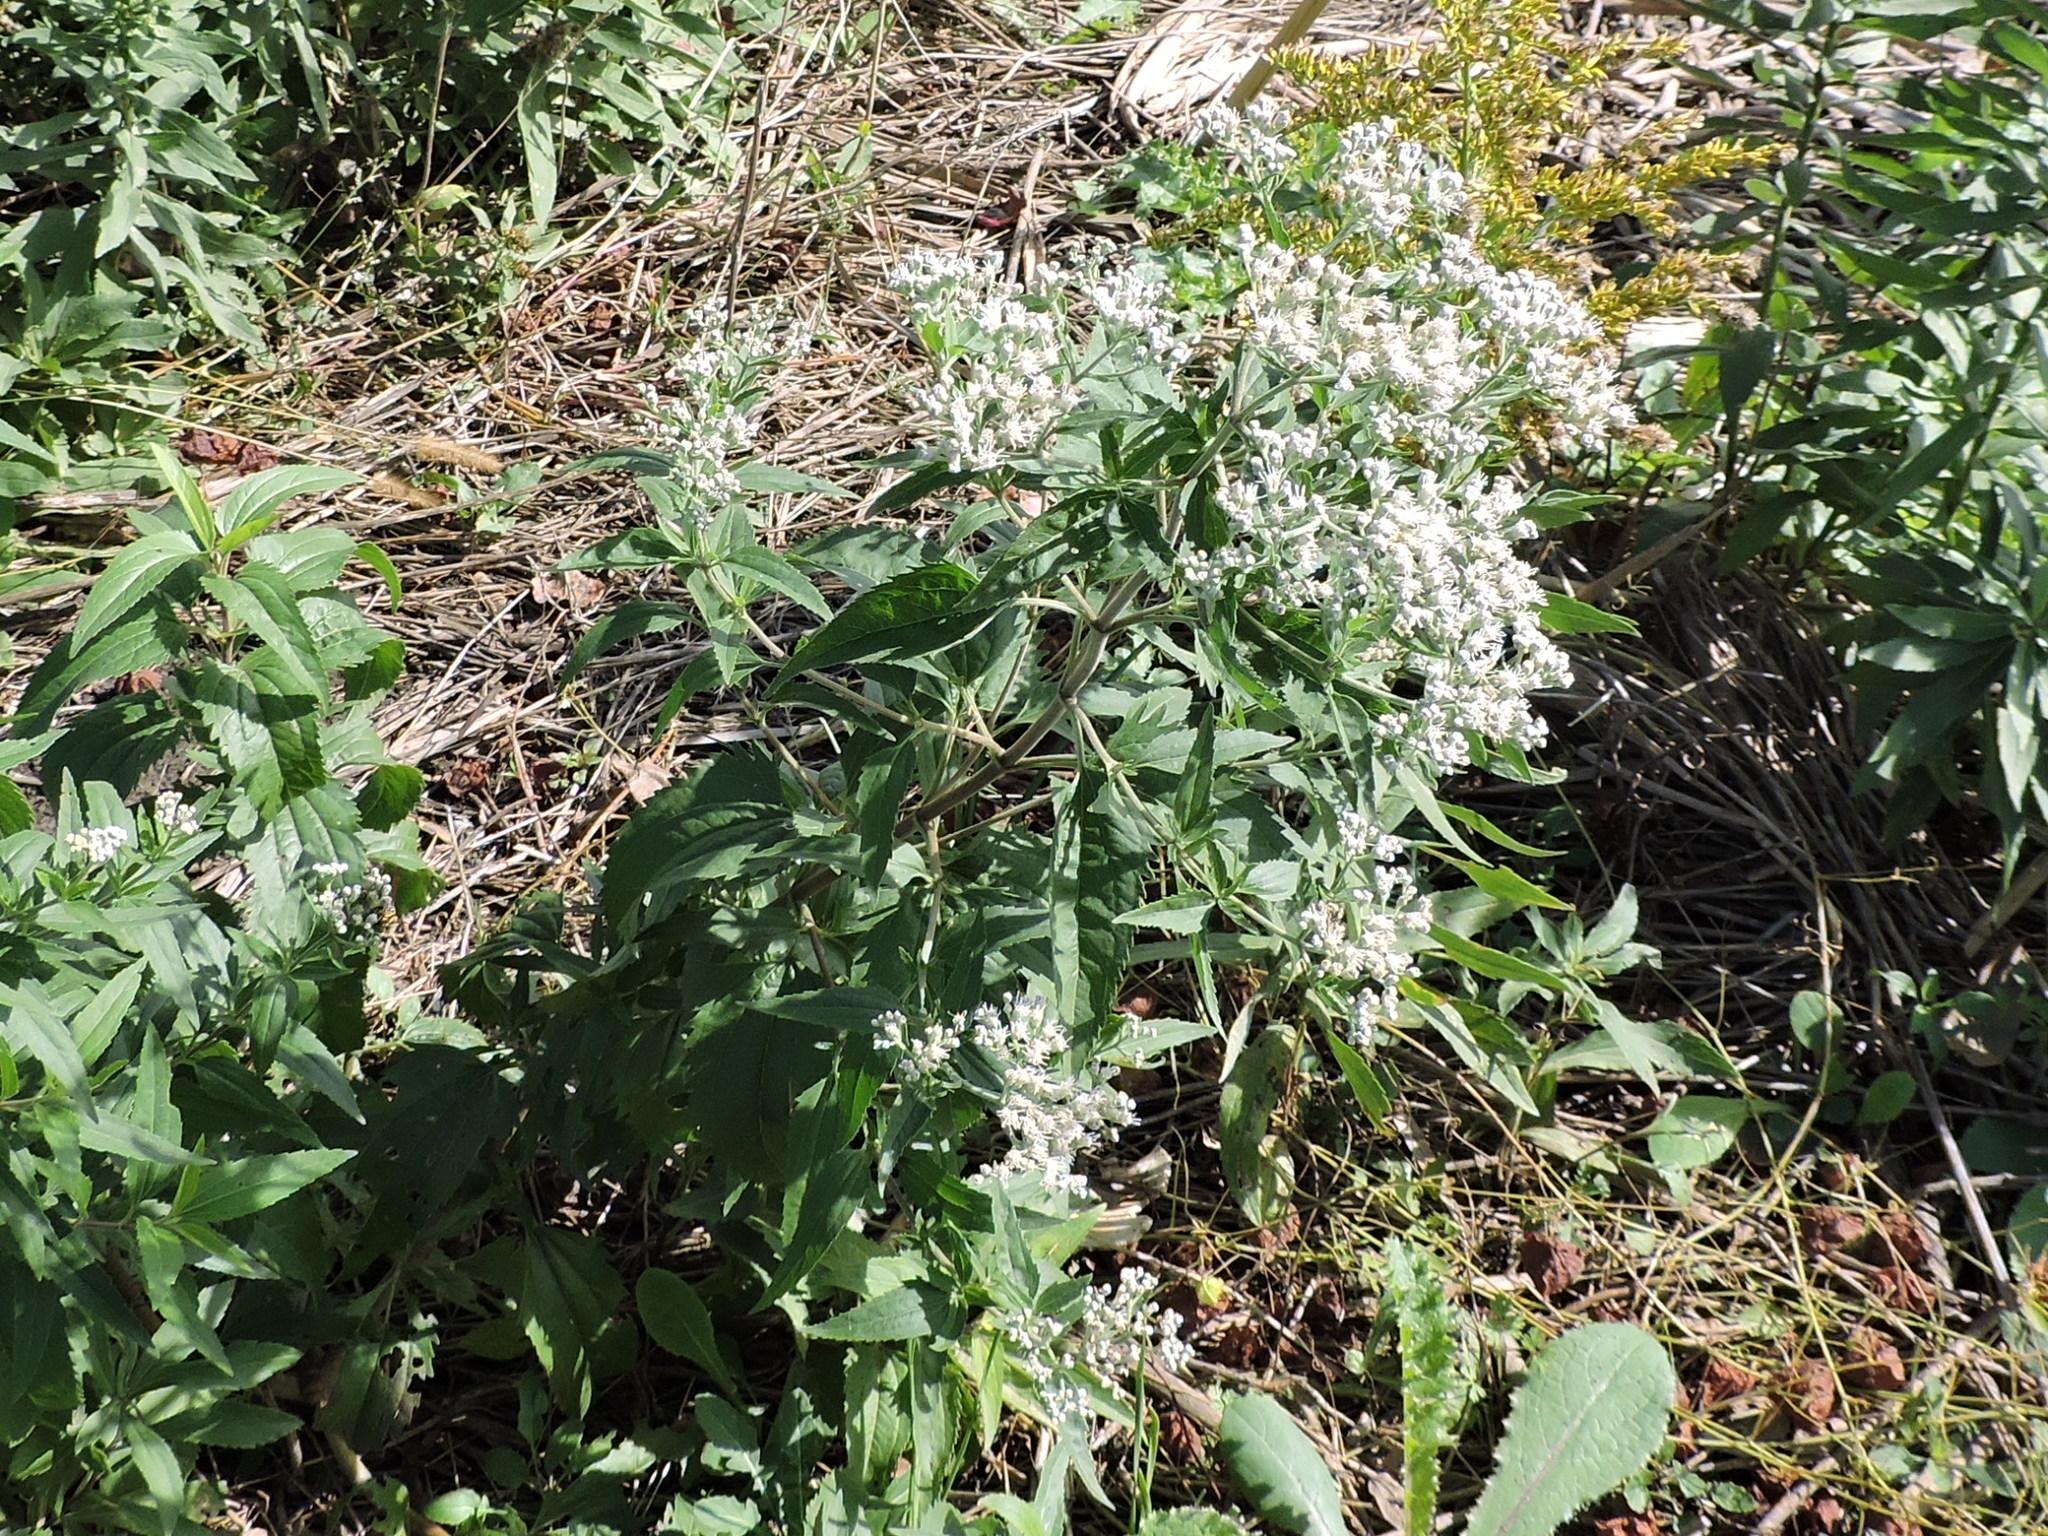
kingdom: Plantae
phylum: Tracheophyta
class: Magnoliopsida
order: Asterales
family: Asteraceae
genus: Eupatorium
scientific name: Eupatorium serotinum
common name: Late boneset
